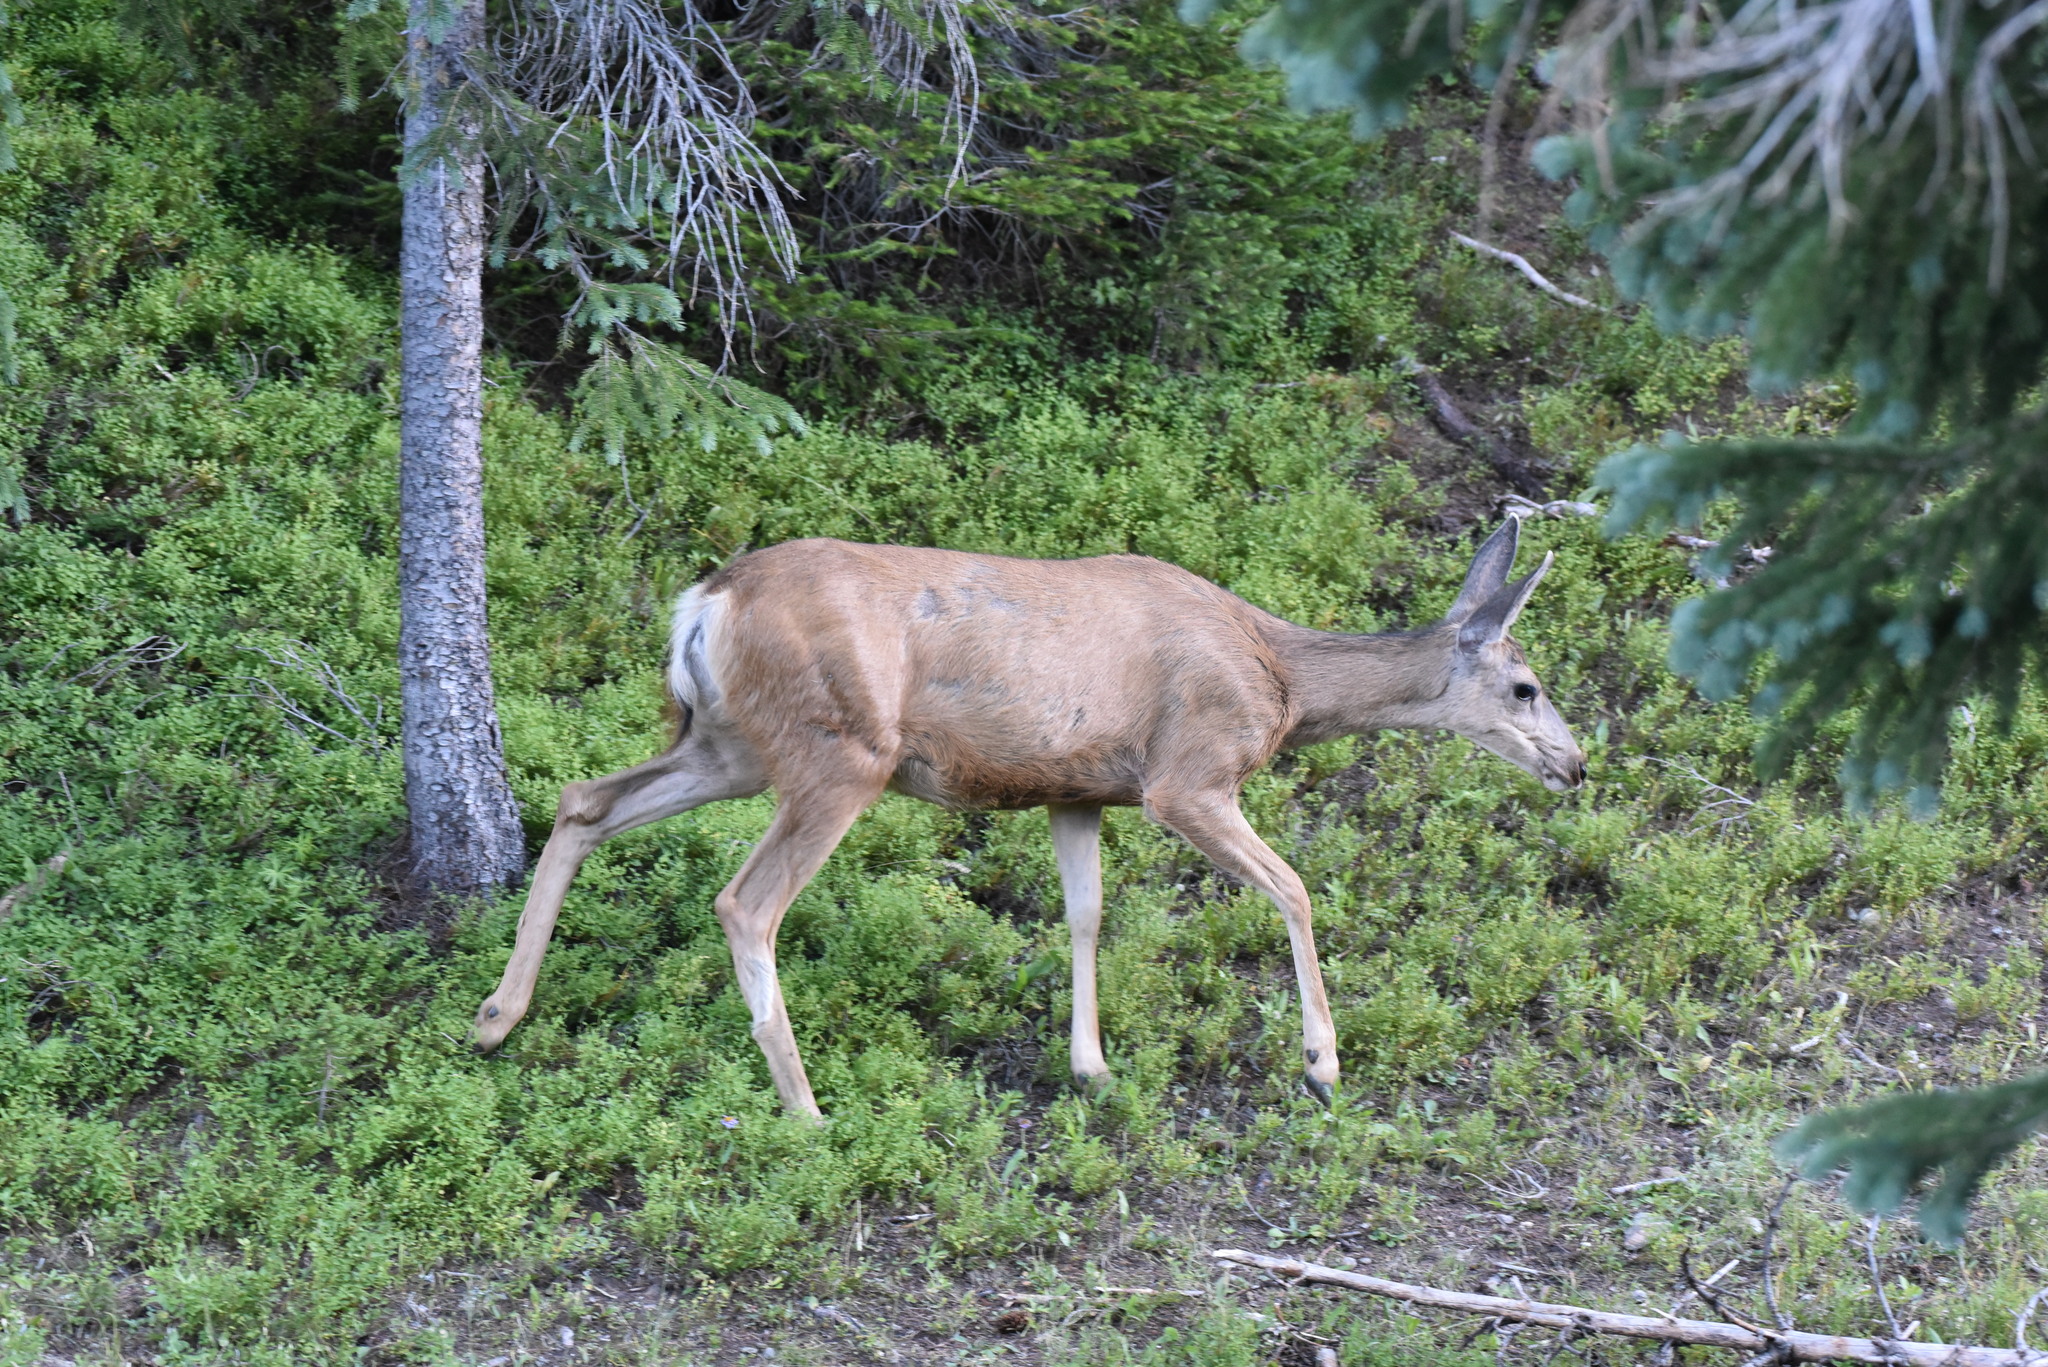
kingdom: Animalia
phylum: Chordata
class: Mammalia
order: Artiodactyla
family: Cervidae
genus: Odocoileus
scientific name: Odocoileus hemionus
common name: Mule deer
